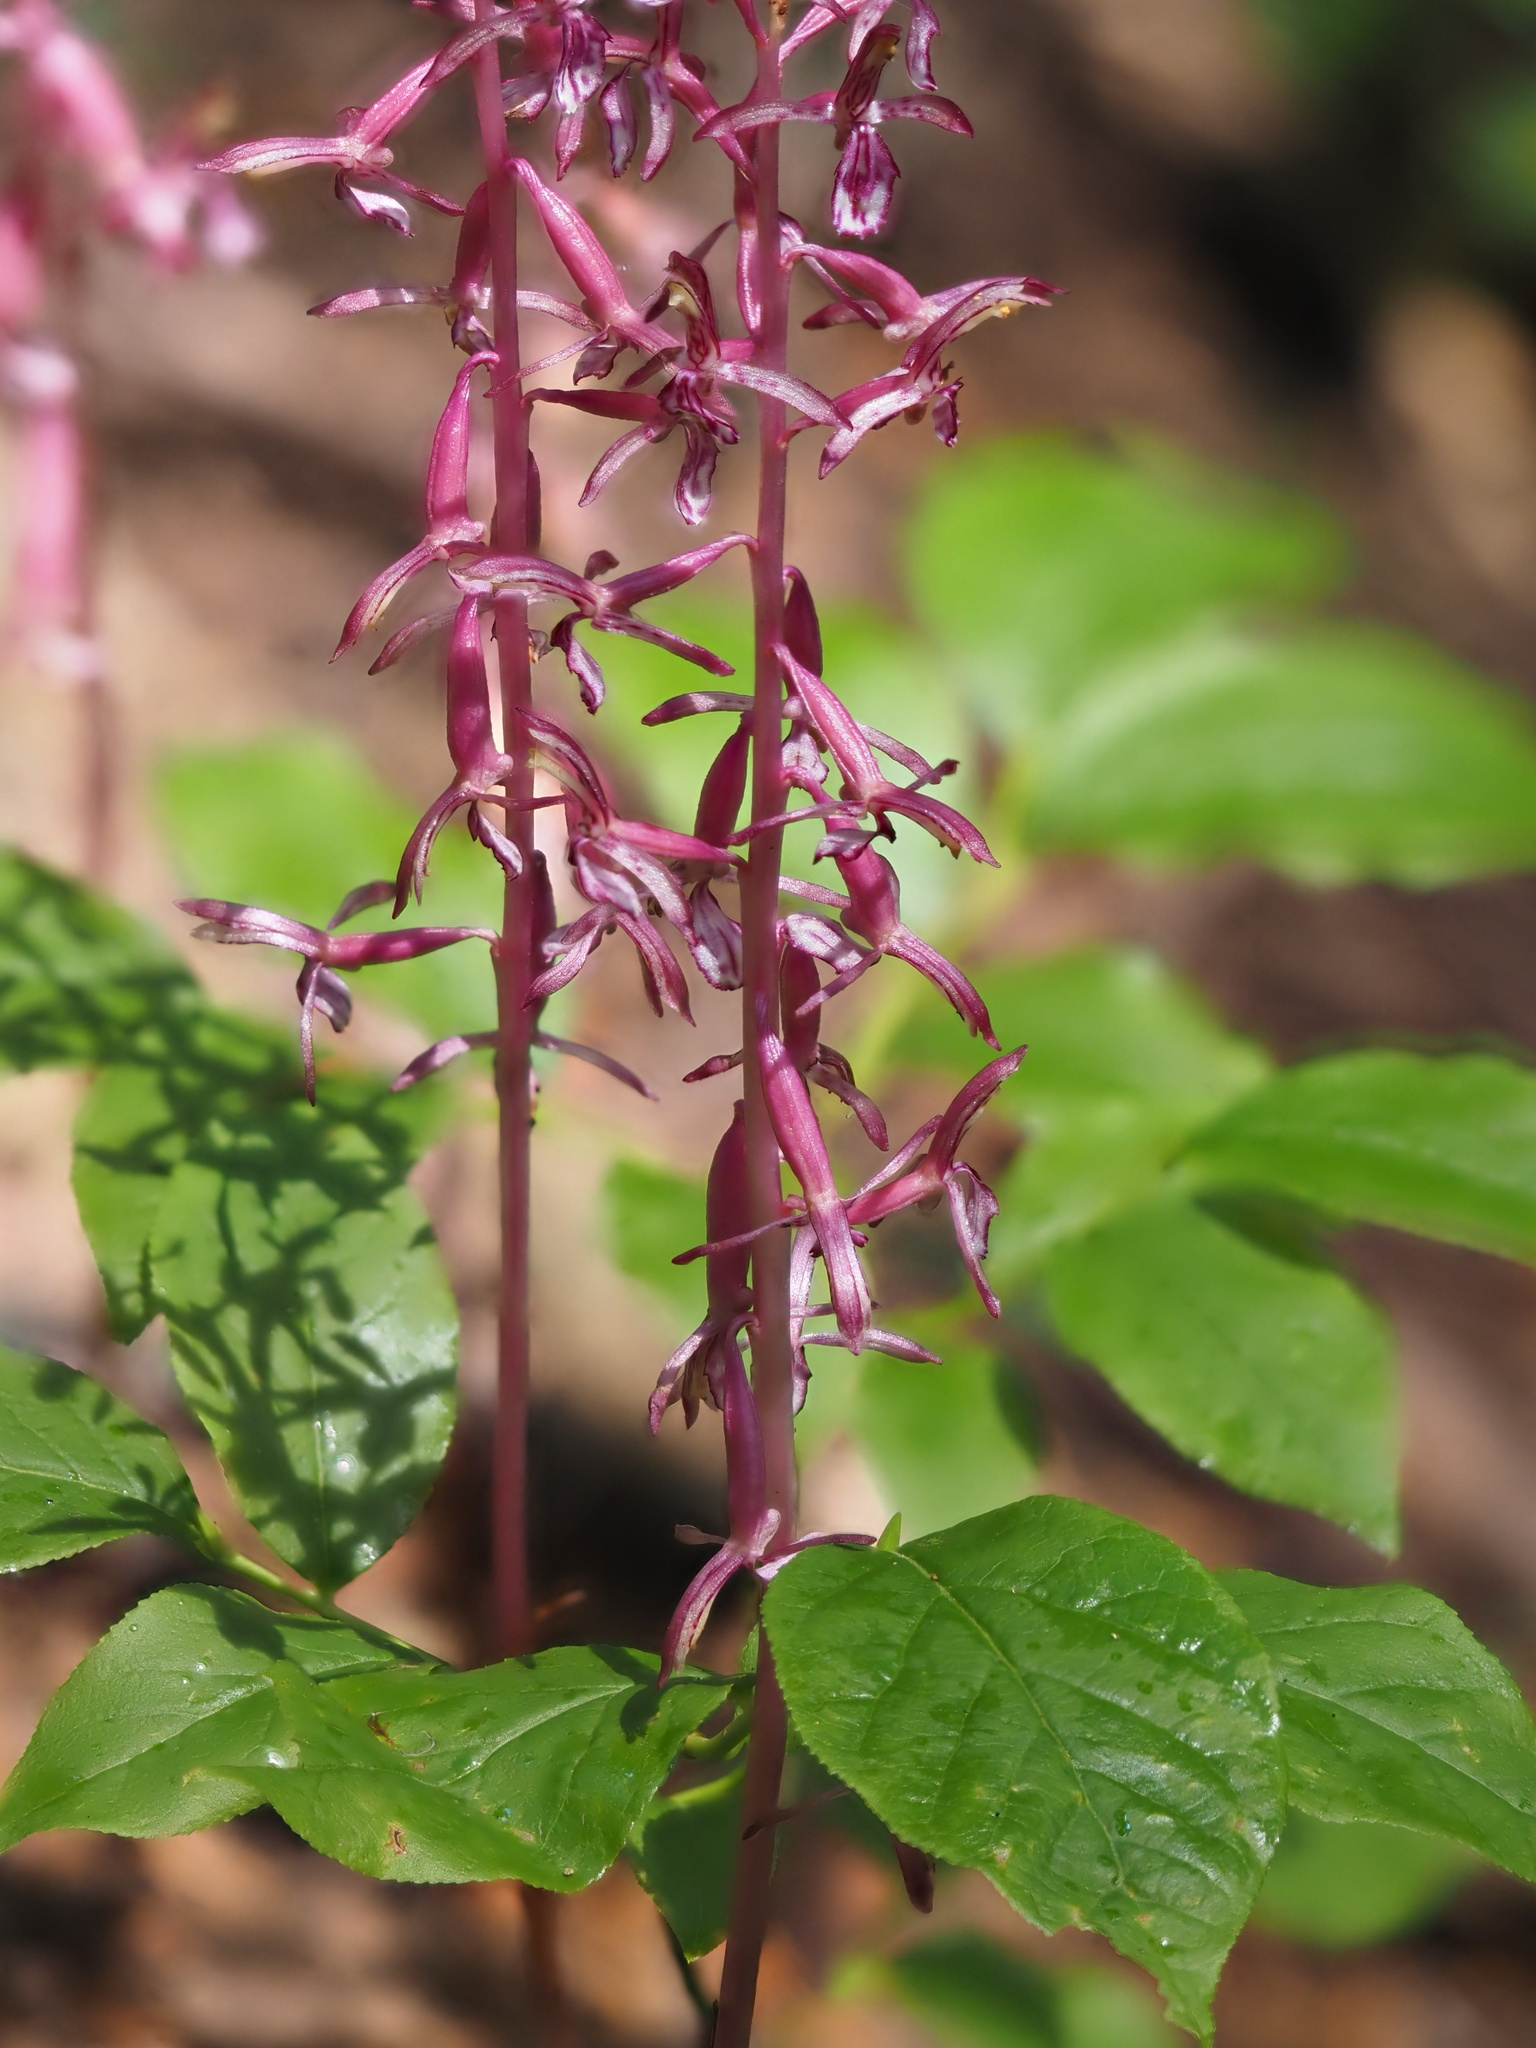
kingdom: Plantae
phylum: Tracheophyta
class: Liliopsida
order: Asparagales
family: Orchidaceae
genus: Corallorhiza
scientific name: Corallorhiza mertensiana
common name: Pacific coralroot
